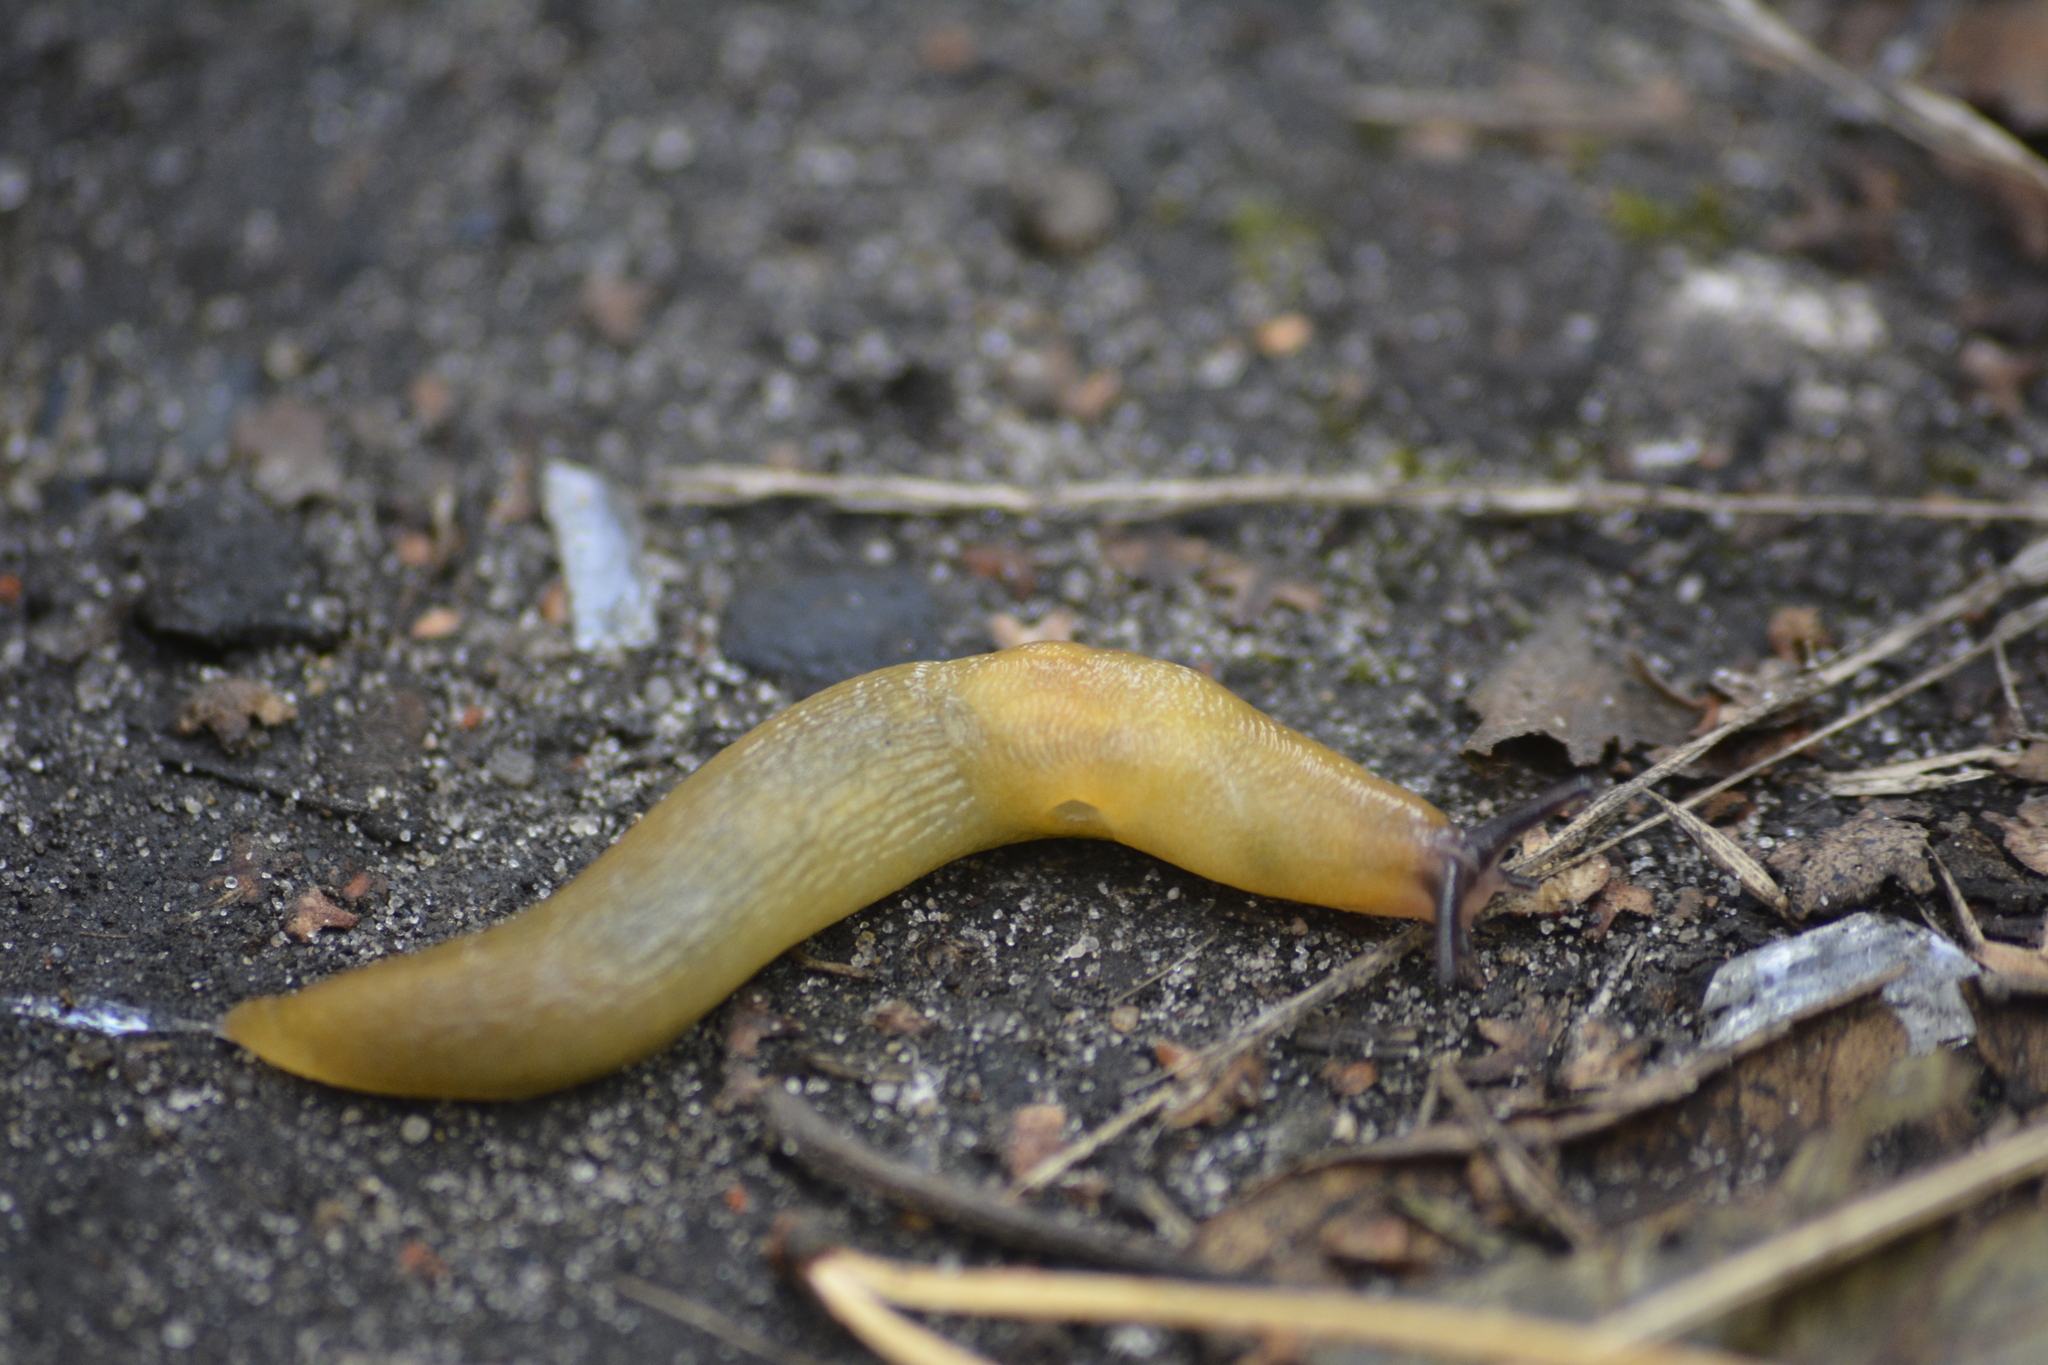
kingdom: Animalia
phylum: Mollusca
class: Gastropoda
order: Stylommatophora
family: Limacidae
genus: Malacolimax
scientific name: Malacolimax tenellus
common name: Lemon slug
